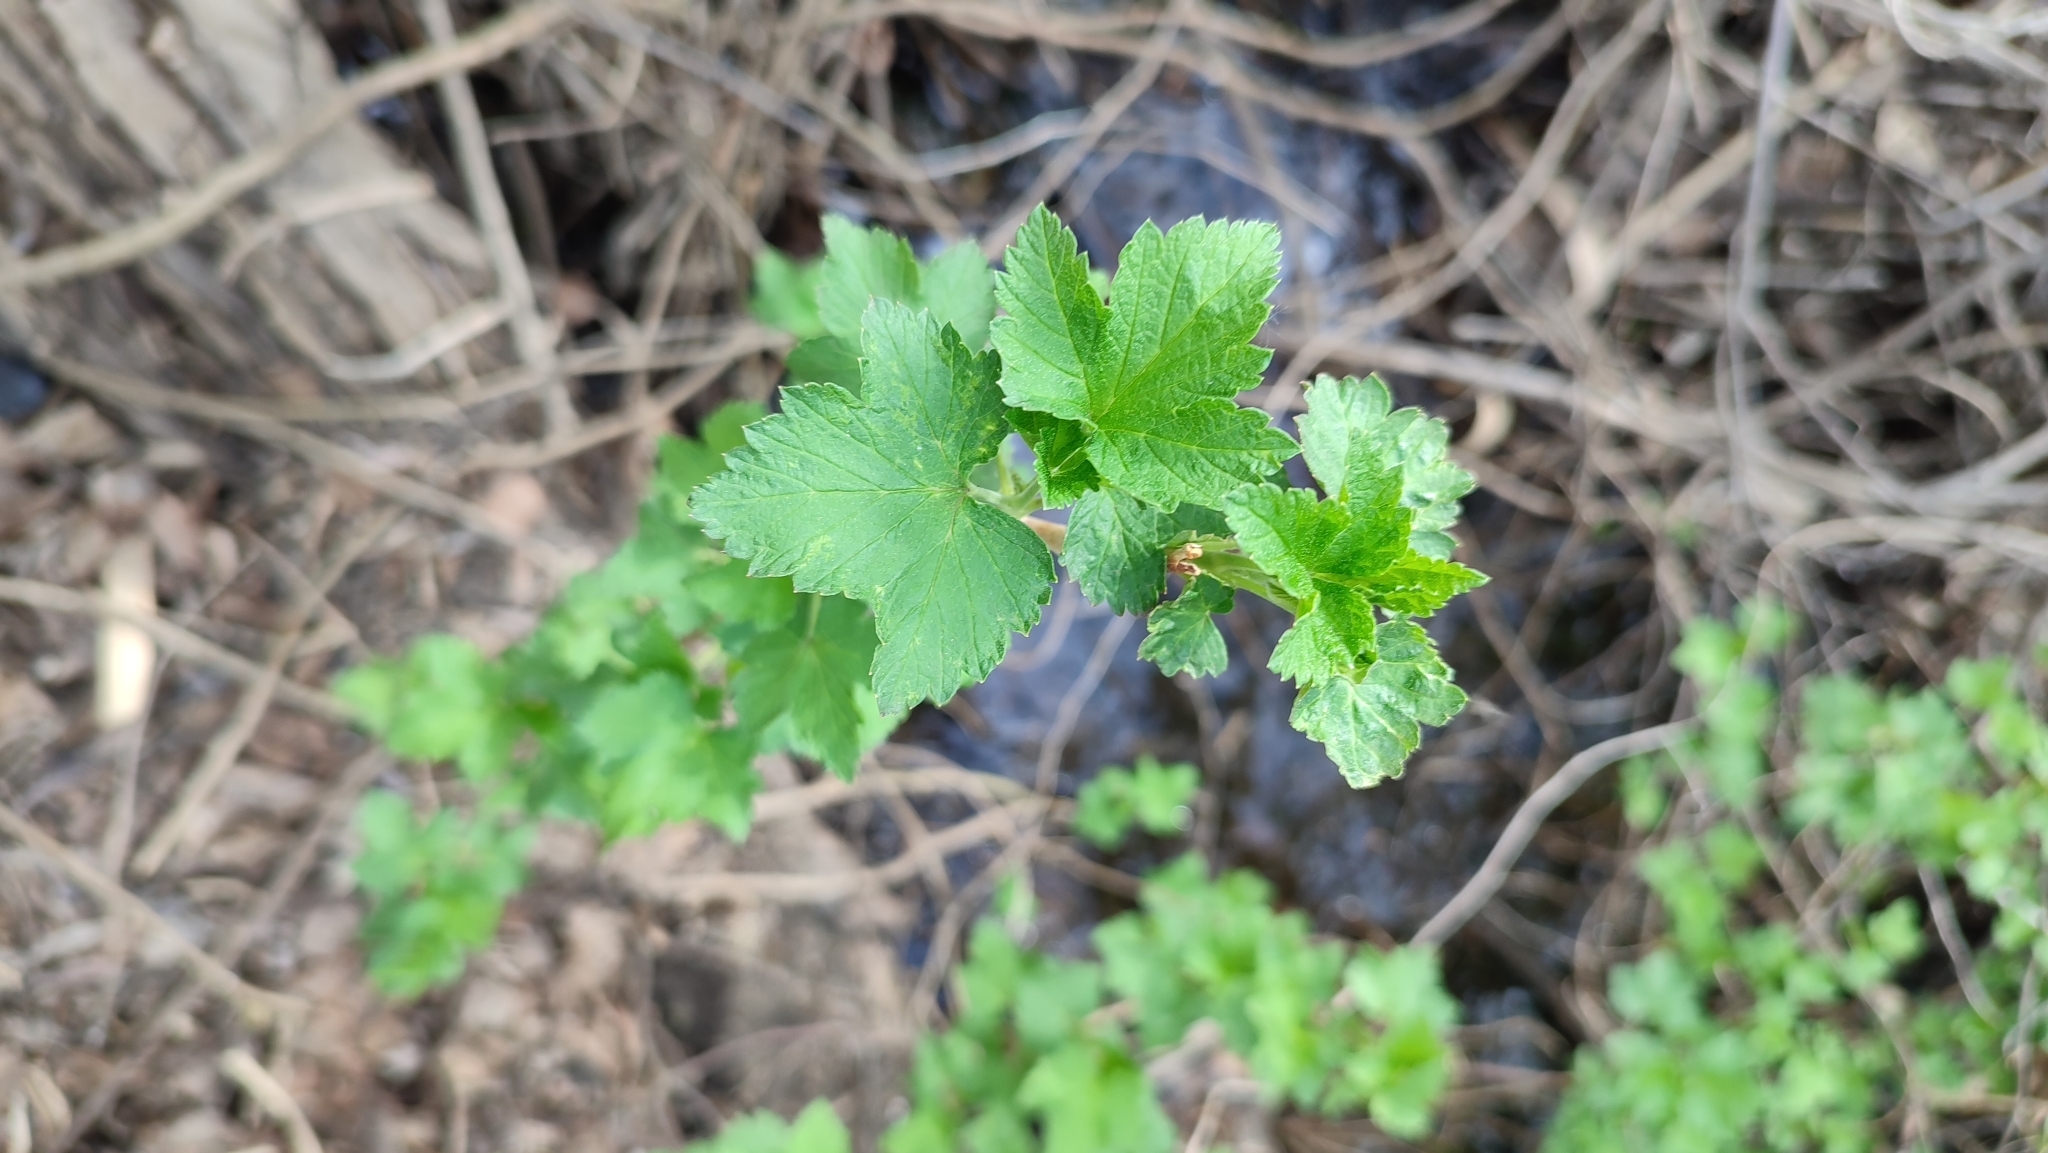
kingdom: Plantae
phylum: Tracheophyta
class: Magnoliopsida
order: Saxifragales
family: Grossulariaceae
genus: Ribes
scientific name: Ribes nigrum
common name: Black currant
